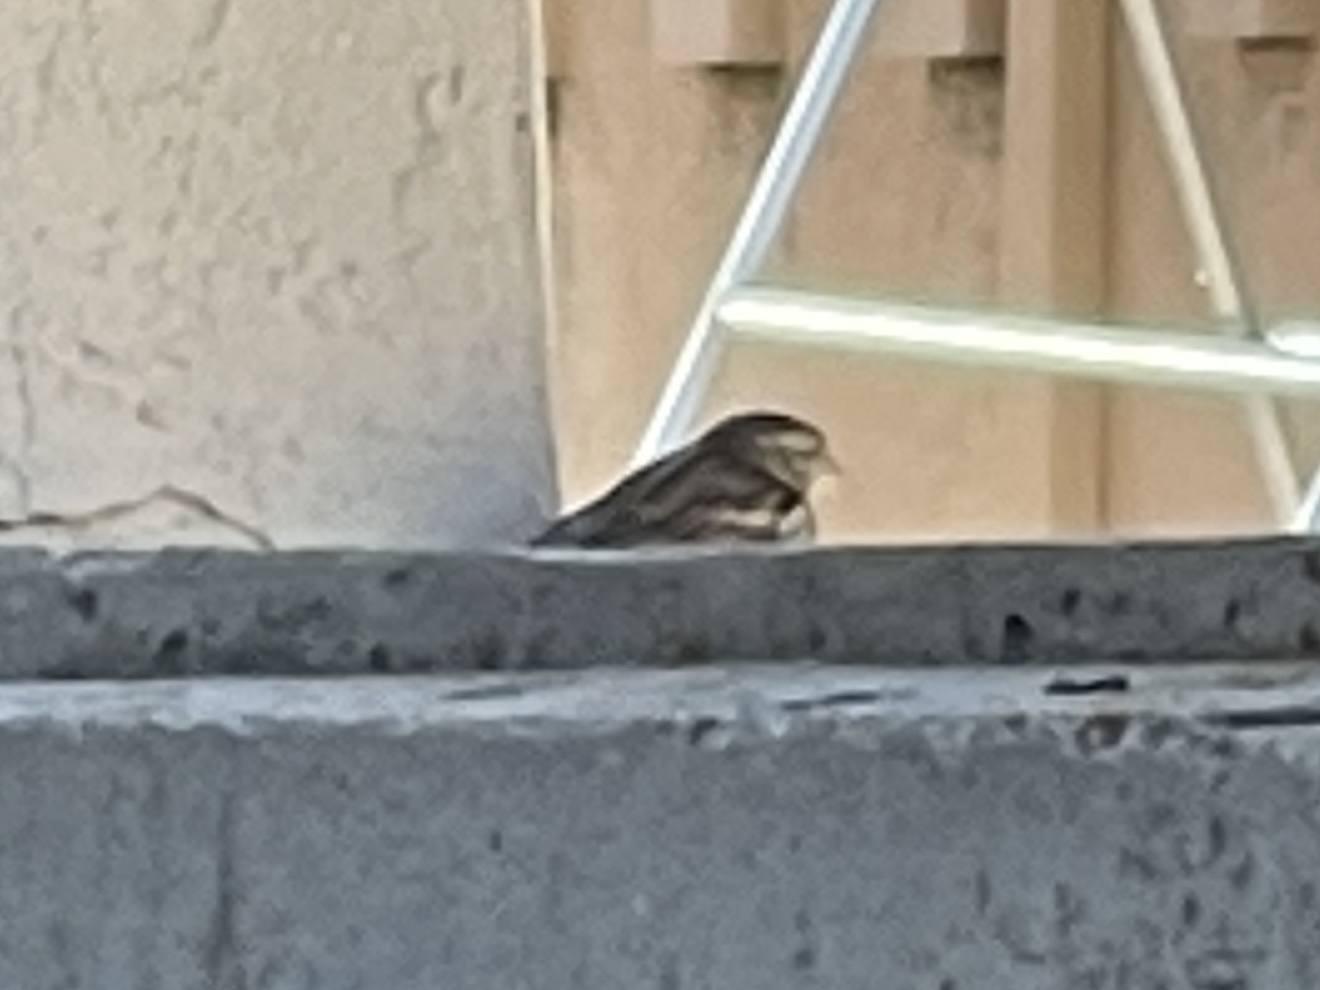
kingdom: Animalia
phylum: Chordata
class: Aves
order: Passeriformes
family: Passeridae
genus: Passer
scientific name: Passer domesticus
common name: House sparrow
